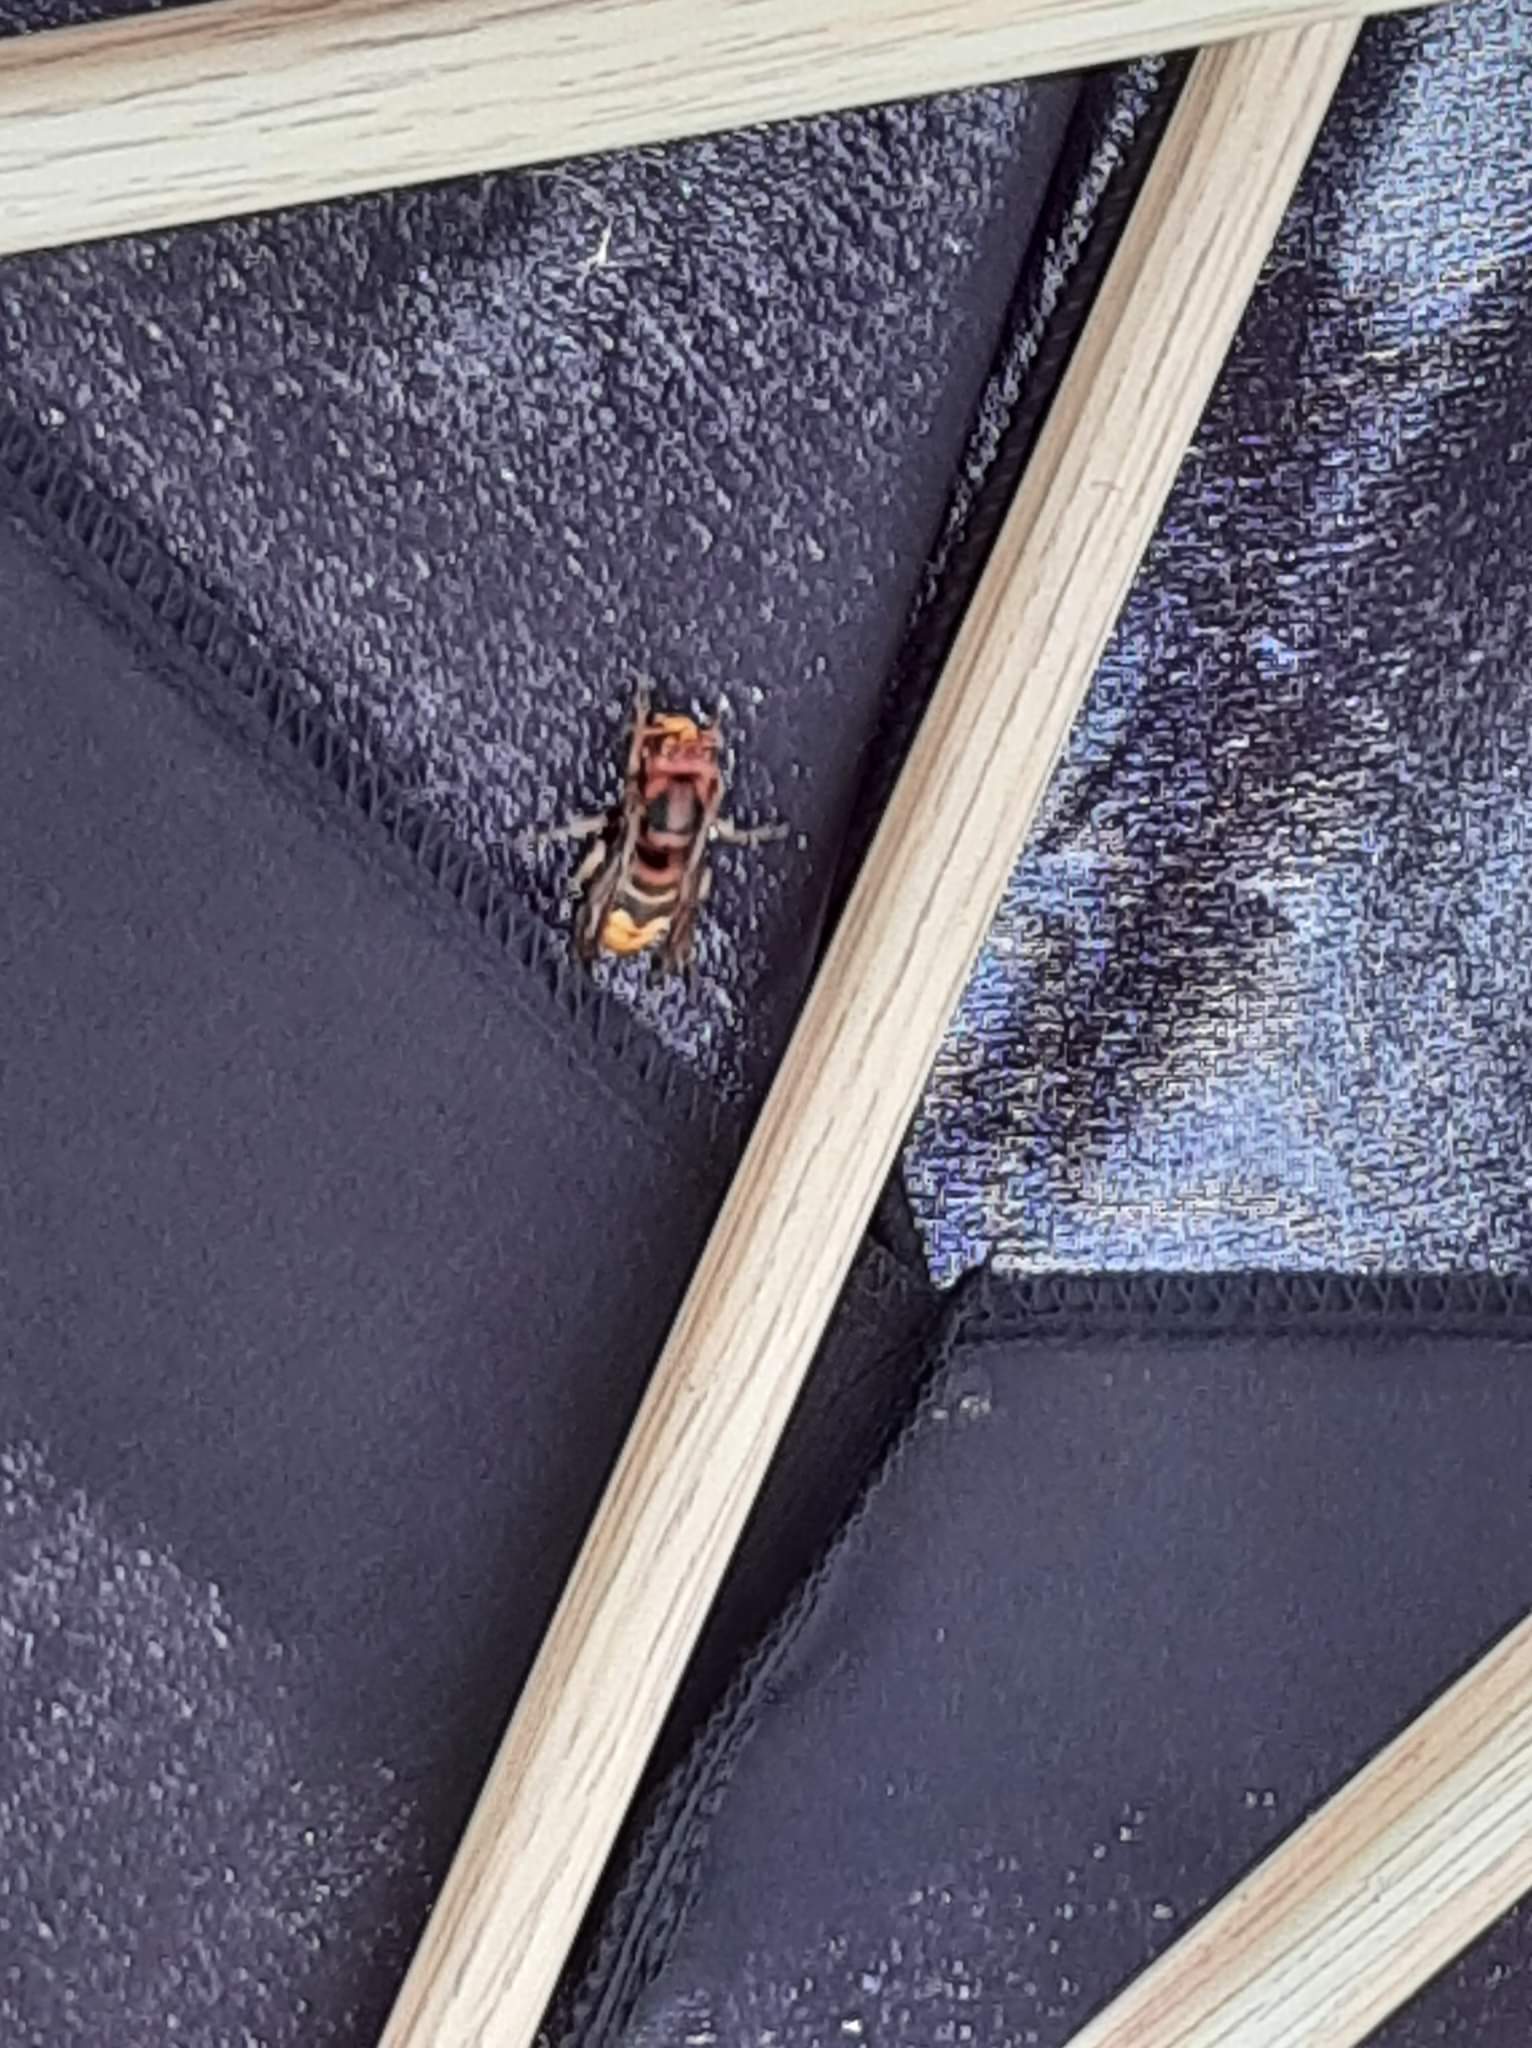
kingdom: Animalia
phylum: Arthropoda
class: Insecta
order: Hymenoptera
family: Vespidae
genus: Vespa
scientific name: Vespa crabro
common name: Hornet
